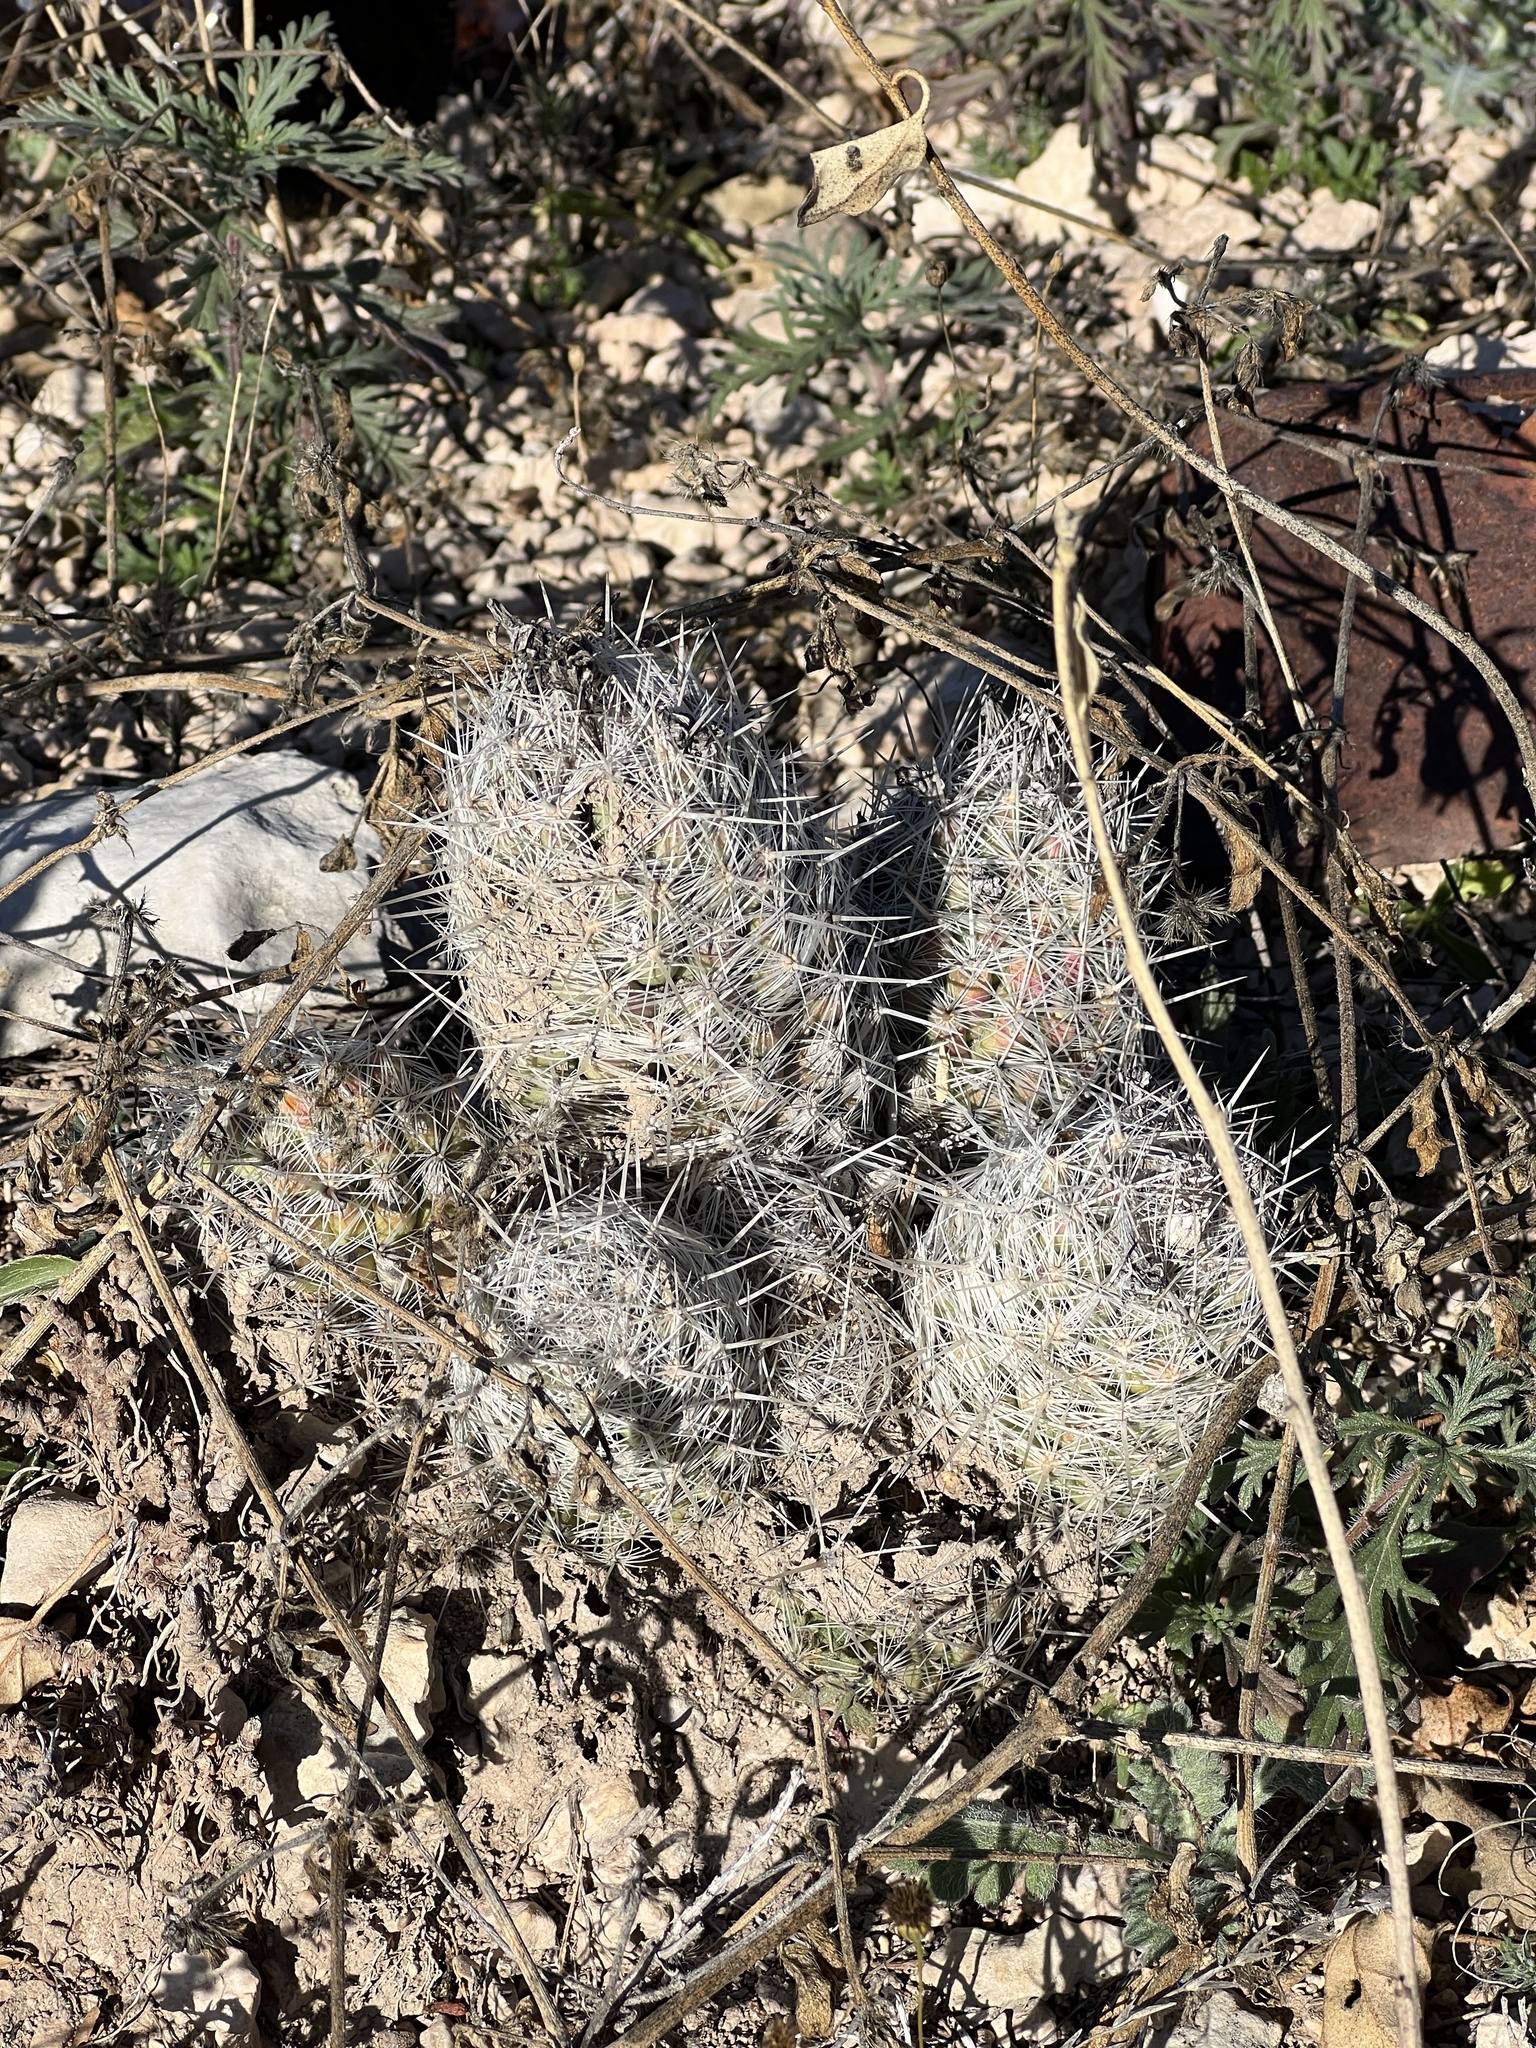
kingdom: Plantae
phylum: Tracheophyta
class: Magnoliopsida
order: Caryophyllales
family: Cactaceae
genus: Pelecyphora
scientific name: Pelecyphora tuberculosa
